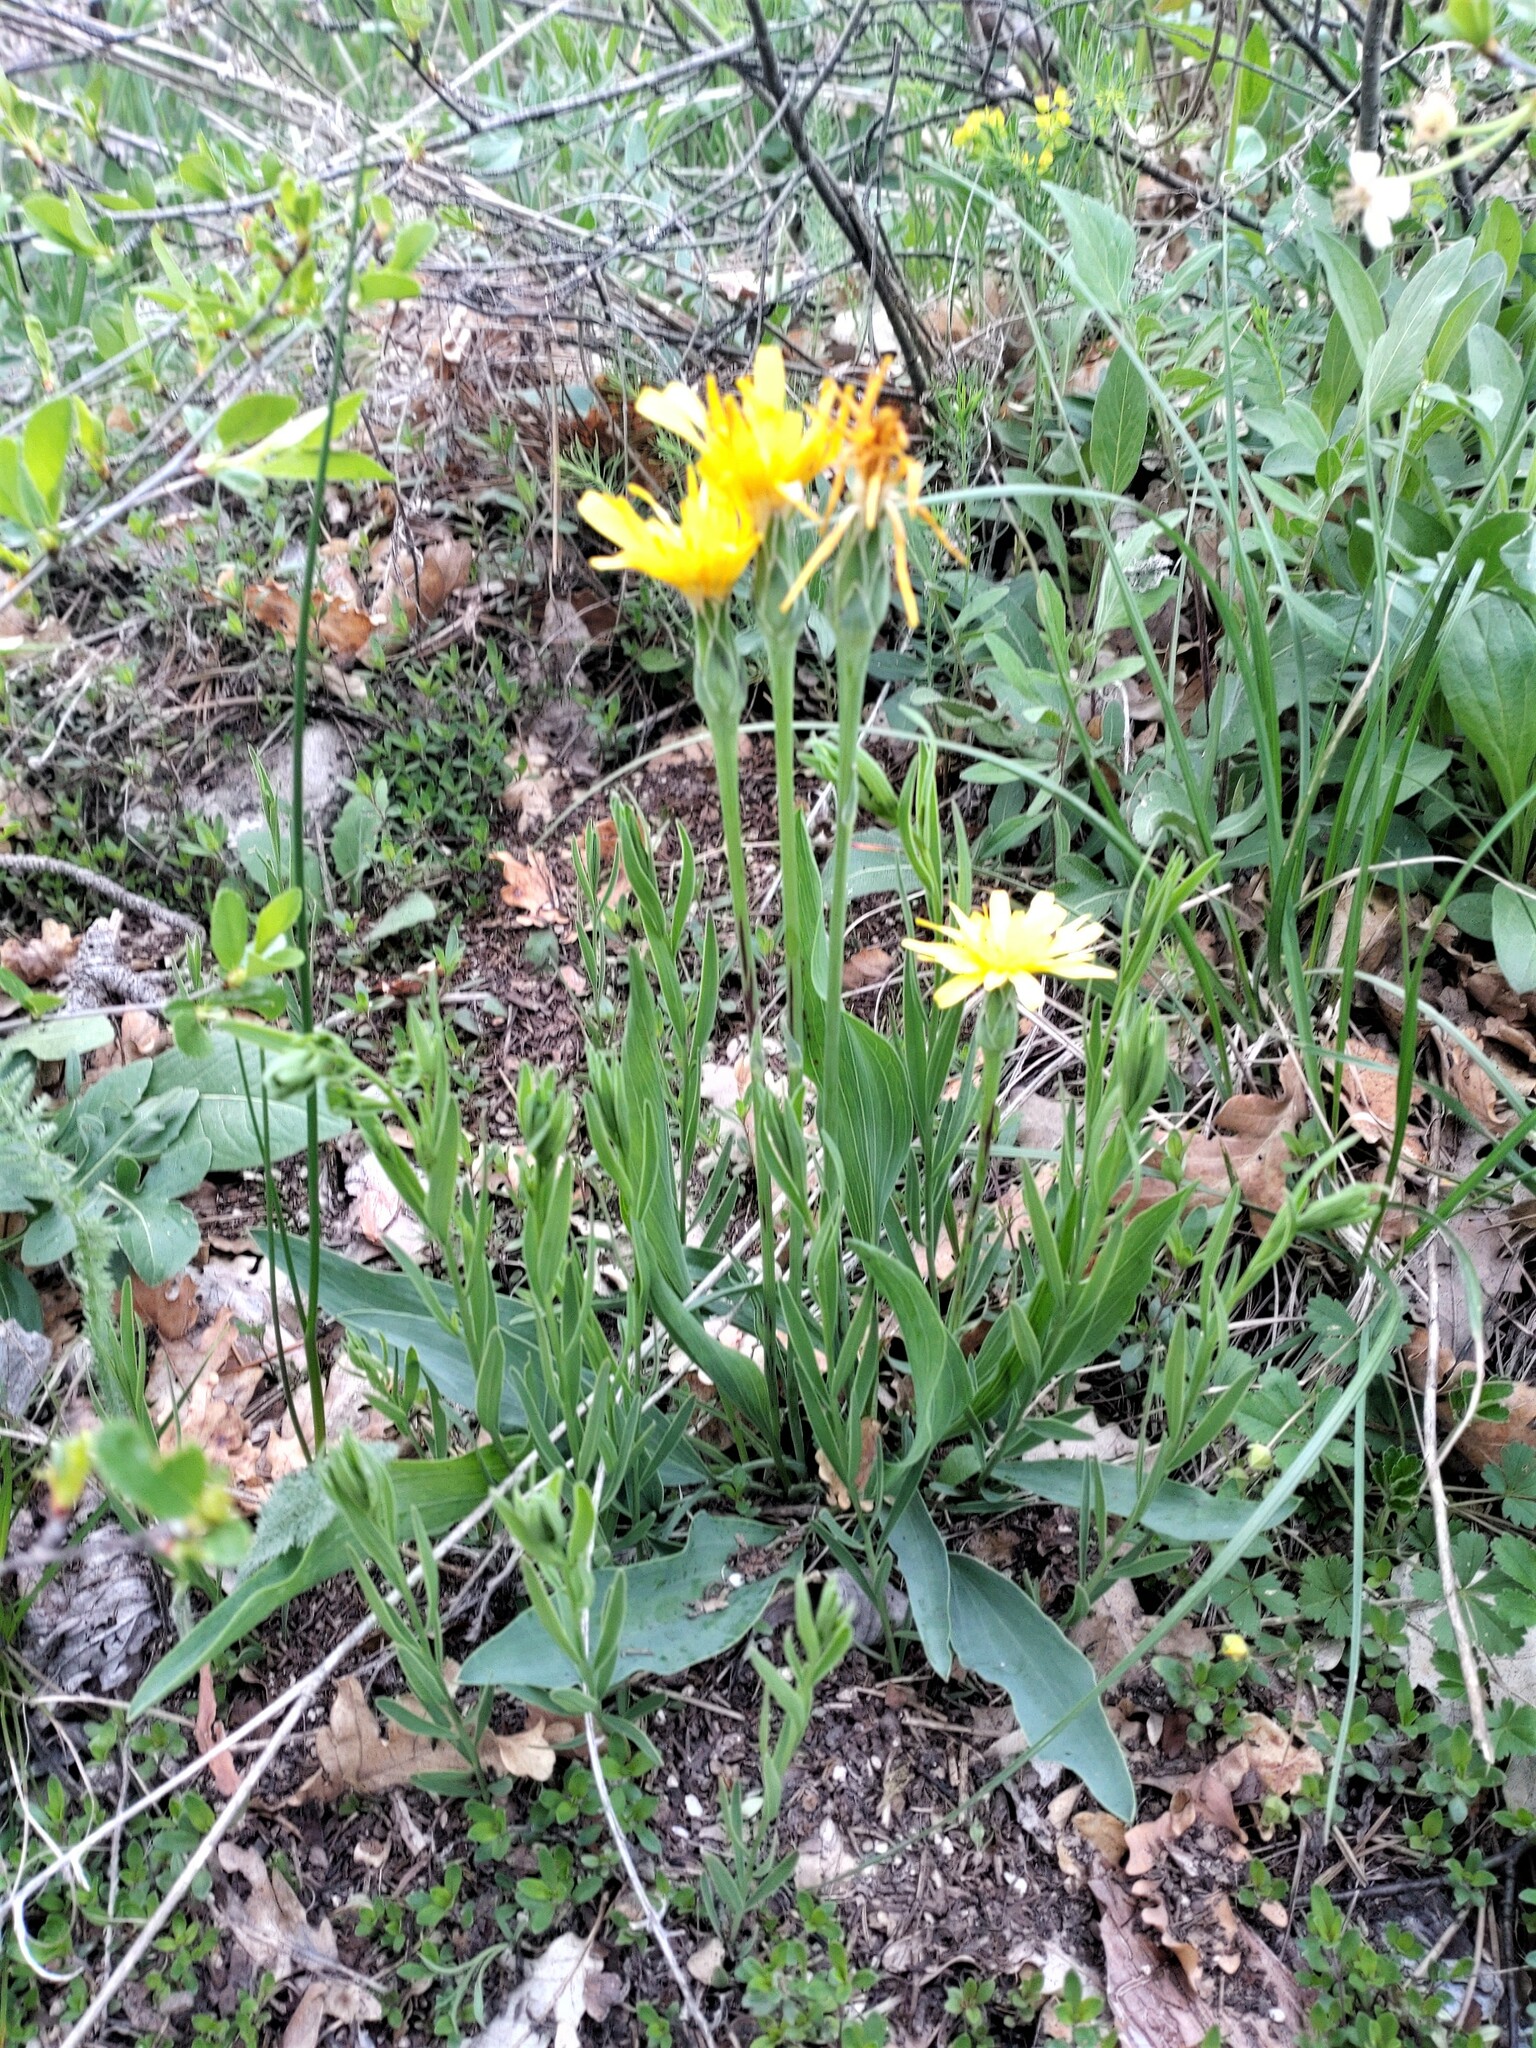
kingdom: Plantae
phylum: Tracheophyta
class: Magnoliopsida
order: Asterales
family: Asteraceae
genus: Takhtajaniantha
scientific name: Takhtajaniantha austriaca
